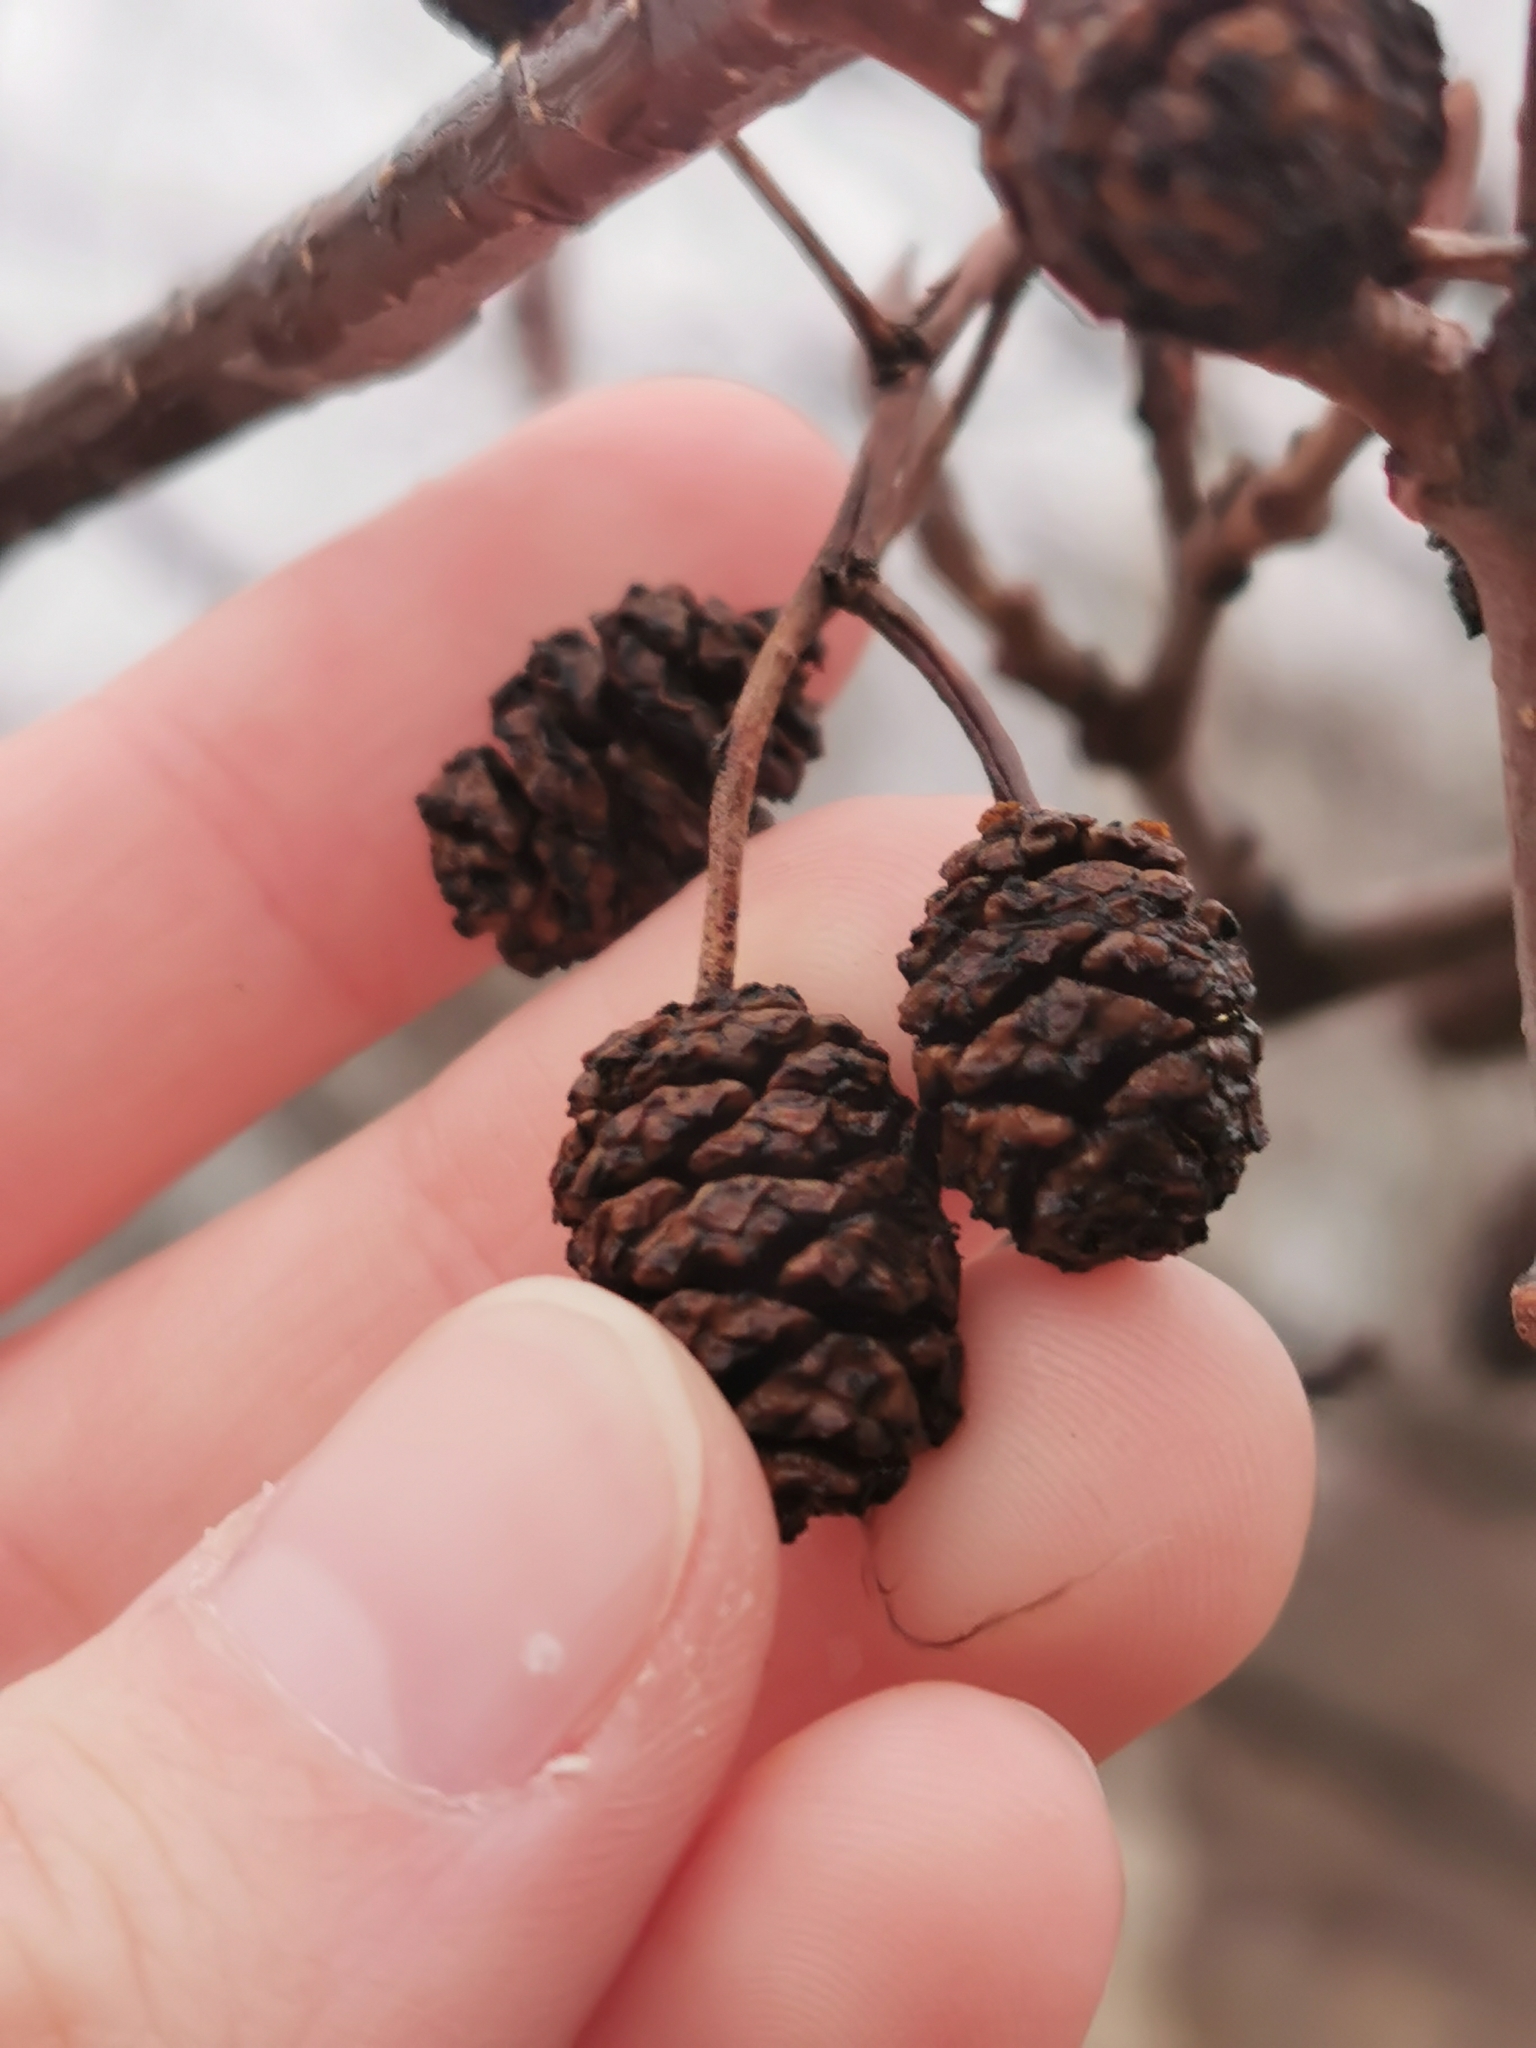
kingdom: Plantae
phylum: Tracheophyta
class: Magnoliopsida
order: Fagales
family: Betulaceae
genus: Alnus
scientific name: Alnus glutinosa
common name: Black alder
